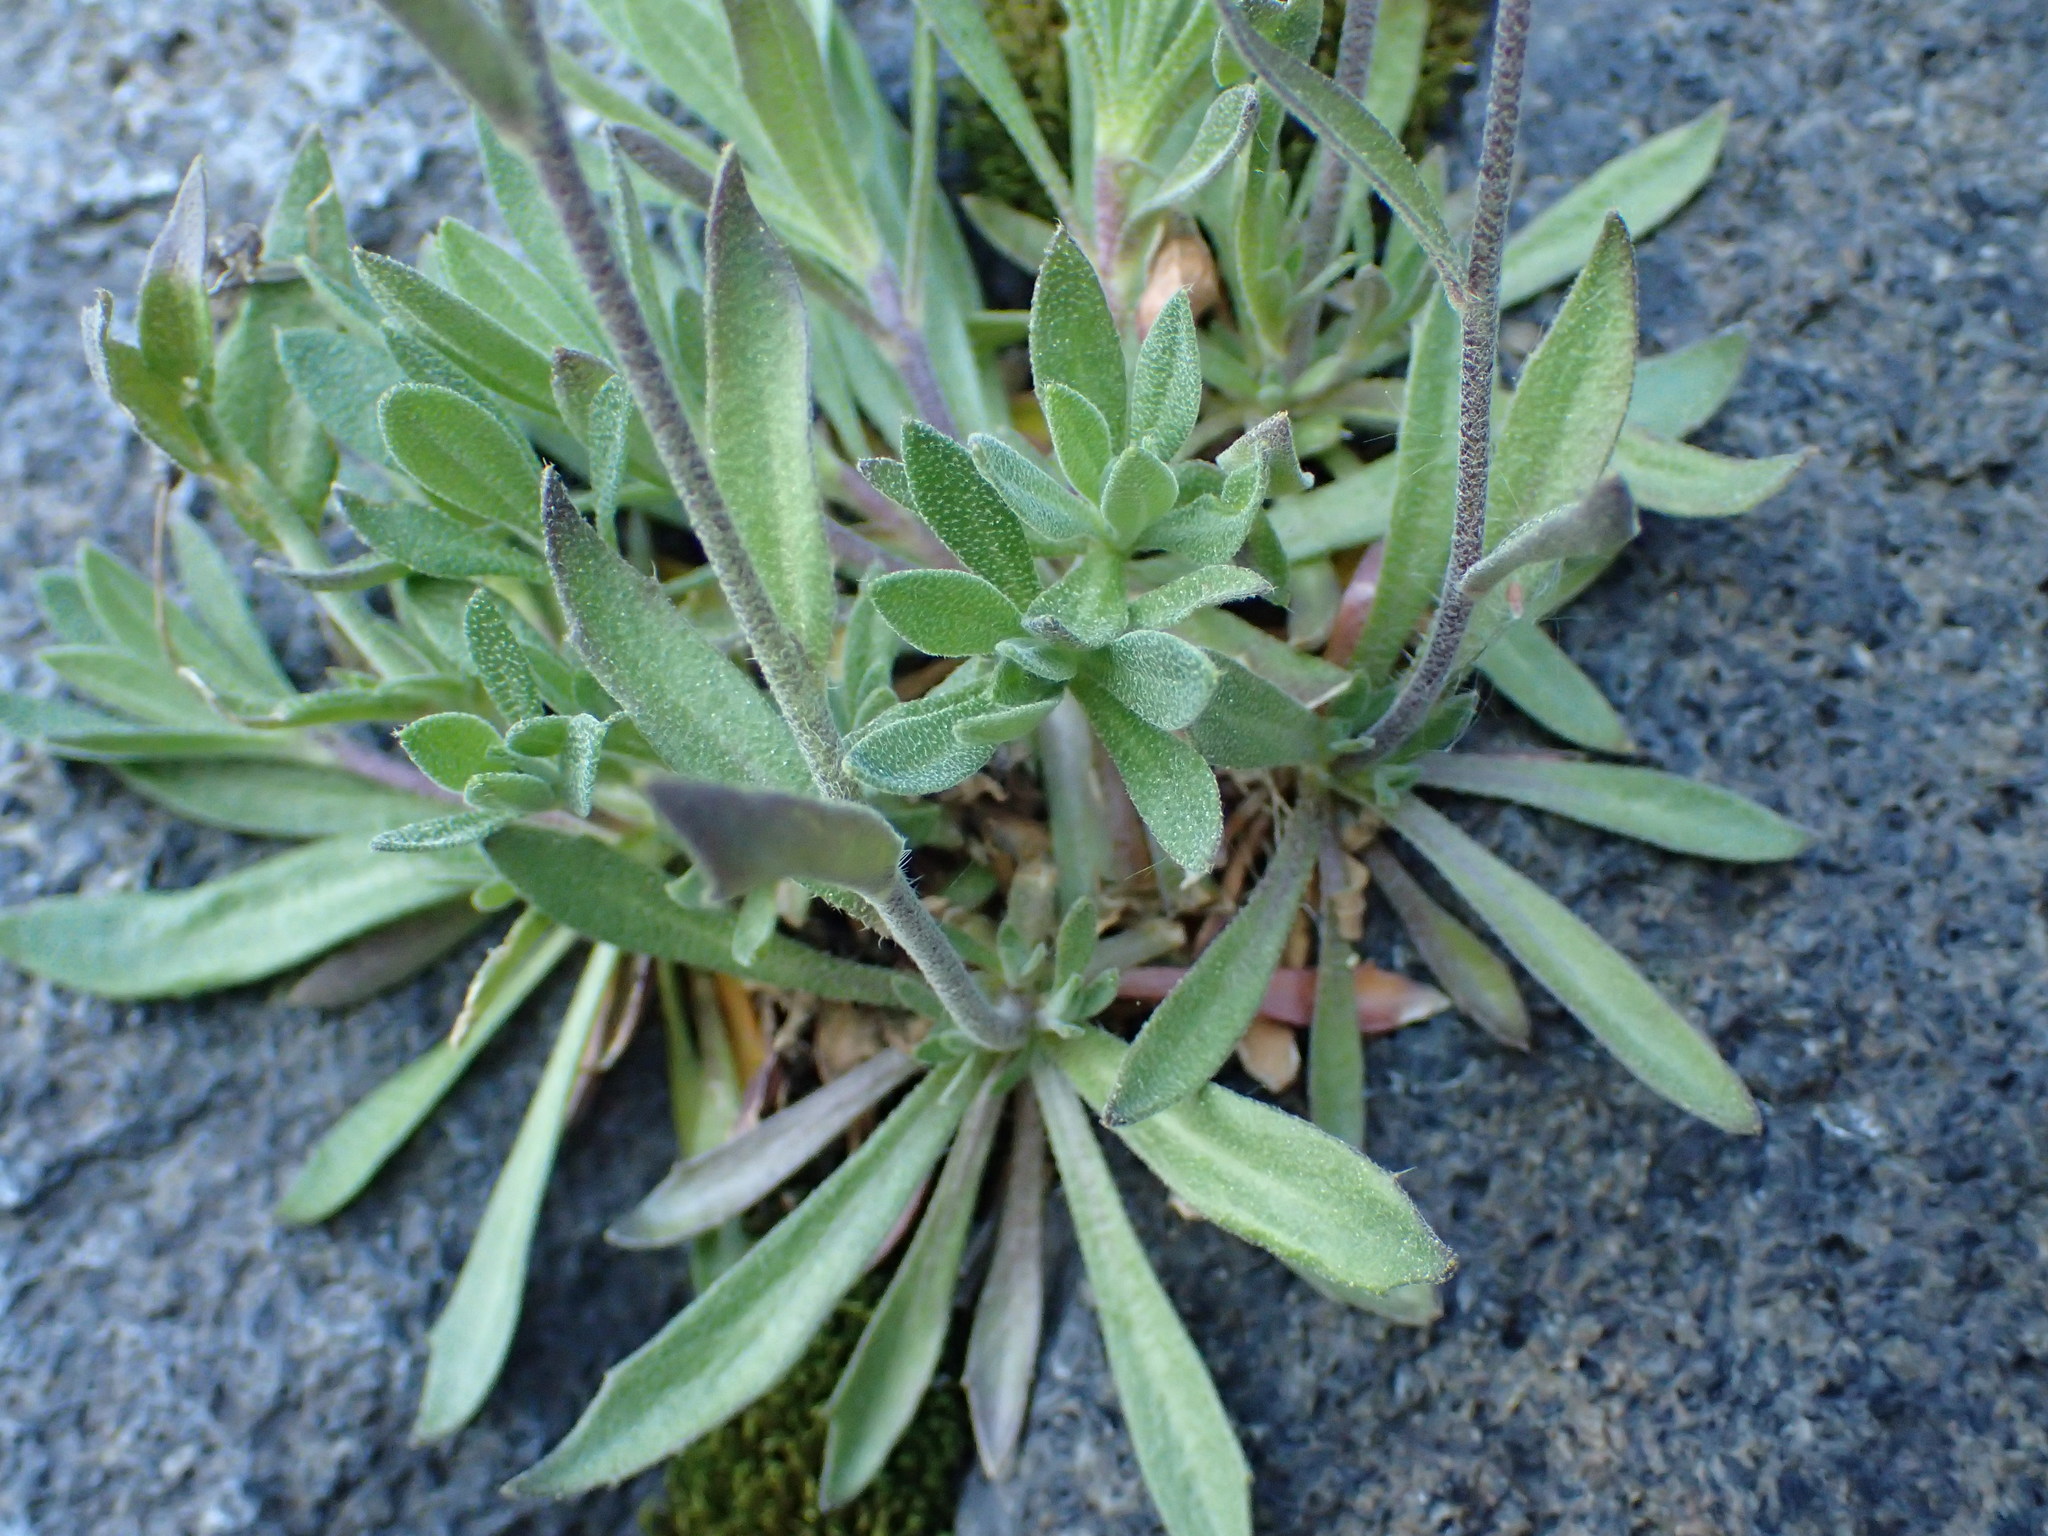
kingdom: Plantae
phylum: Tracheophyta
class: Magnoliopsida
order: Brassicales
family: Brassicaceae
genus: Draba
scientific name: Draba arabisans
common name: Rock draba
